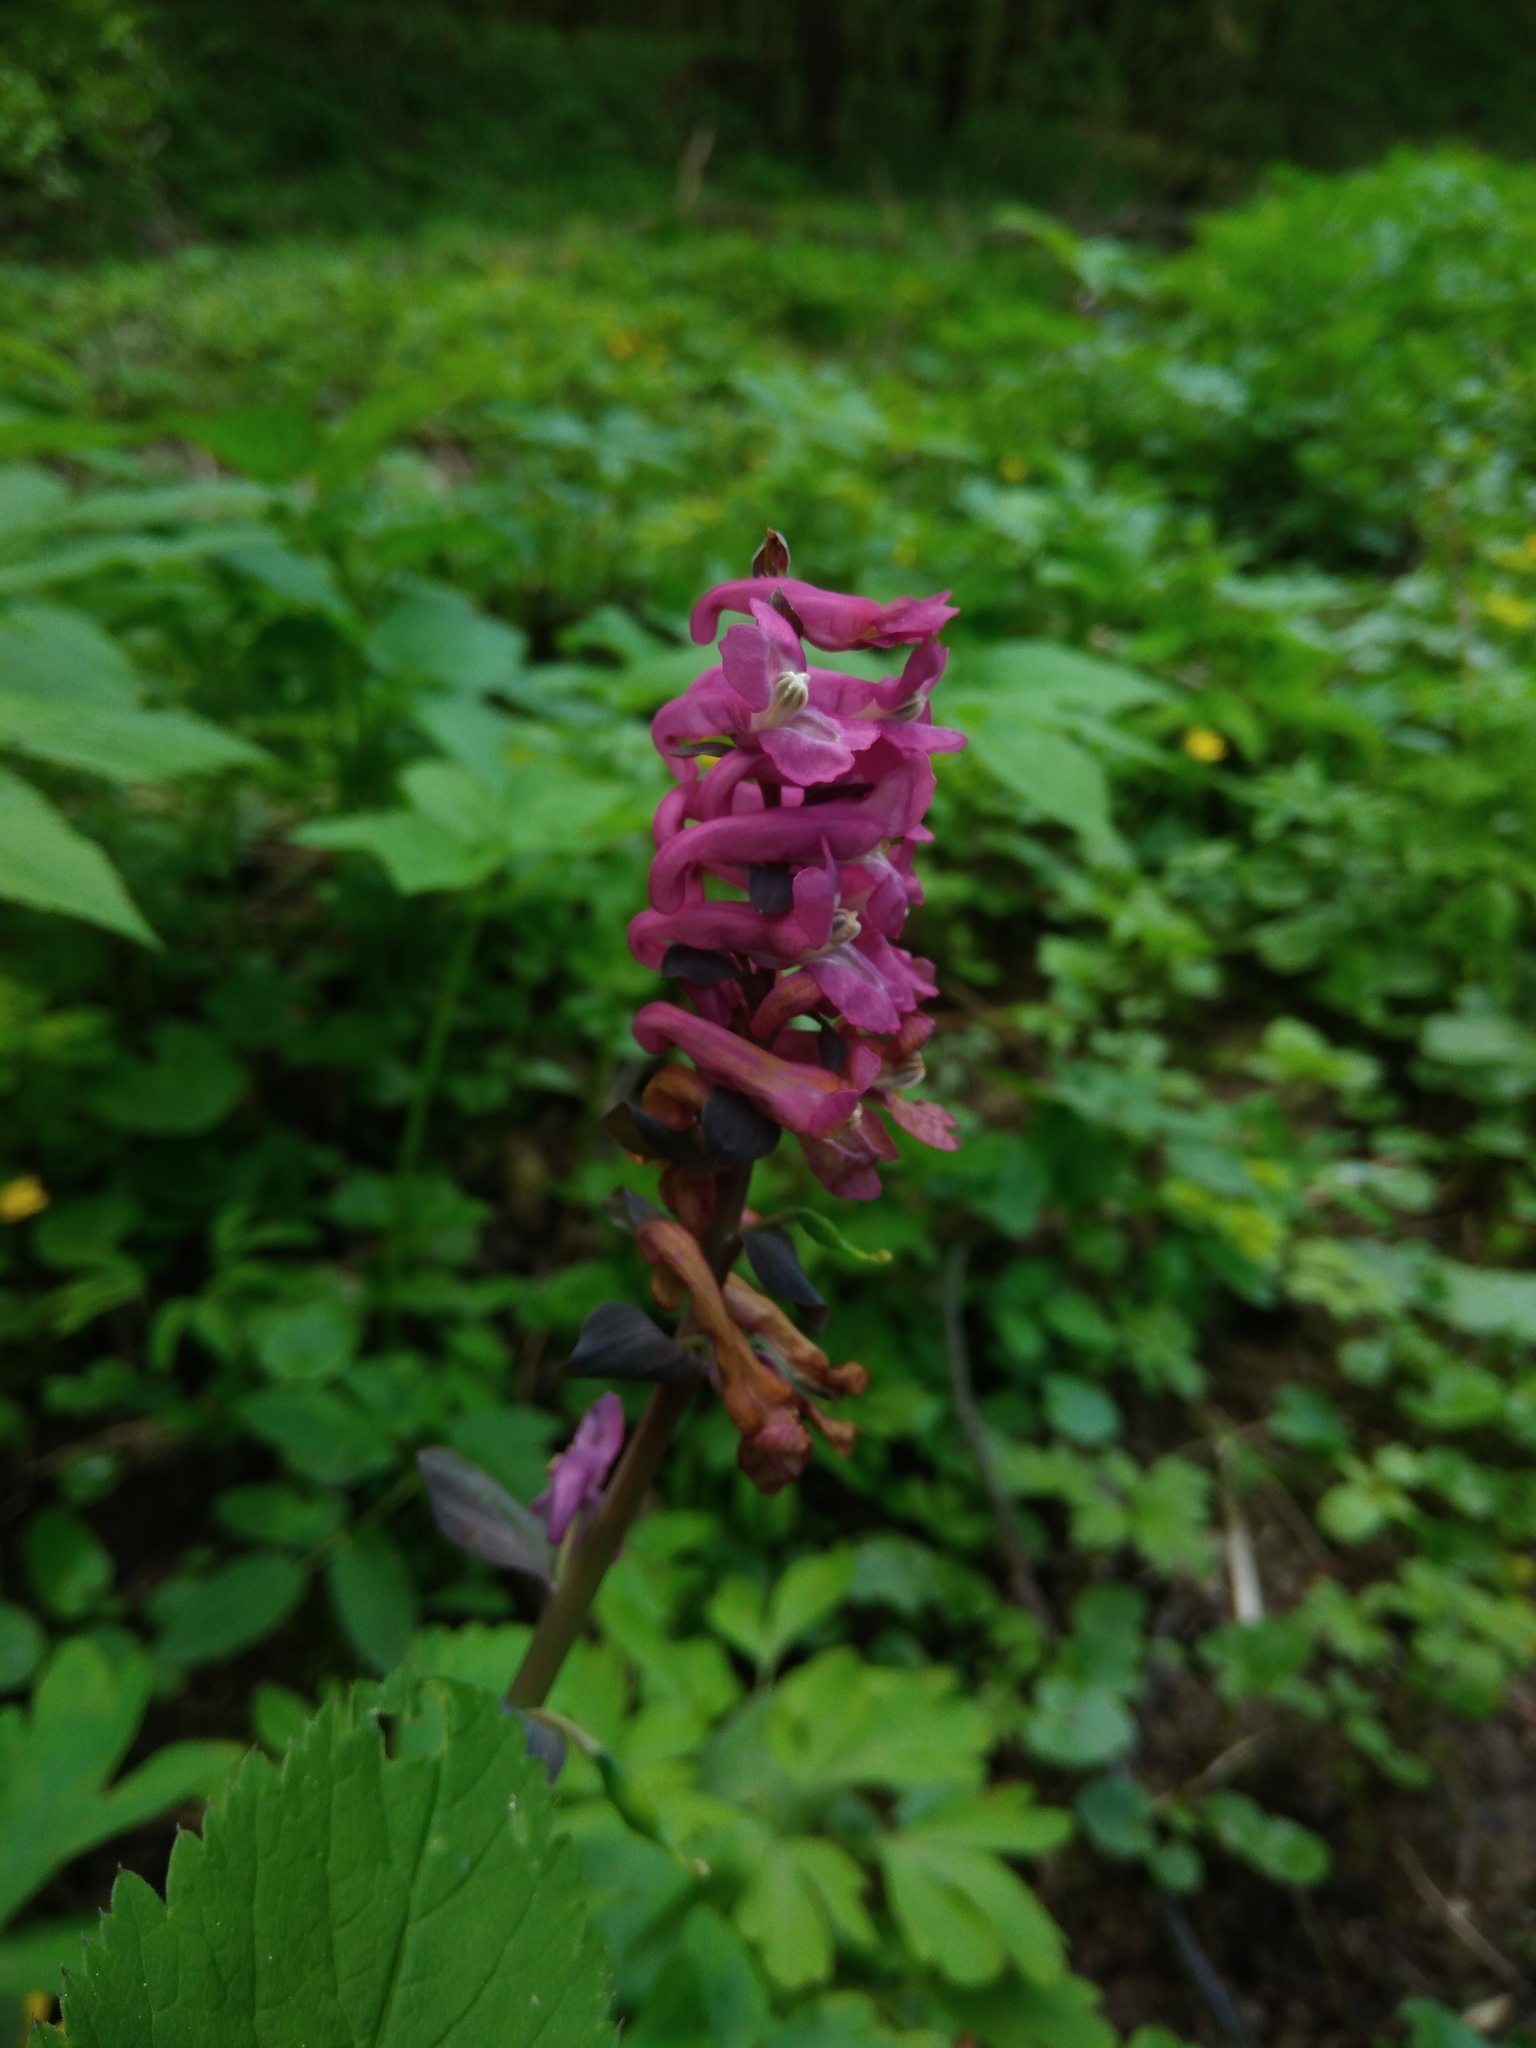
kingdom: Plantae
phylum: Tracheophyta
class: Magnoliopsida
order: Ranunculales
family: Papaveraceae
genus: Corydalis
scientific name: Corydalis cava
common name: Hollowroot
